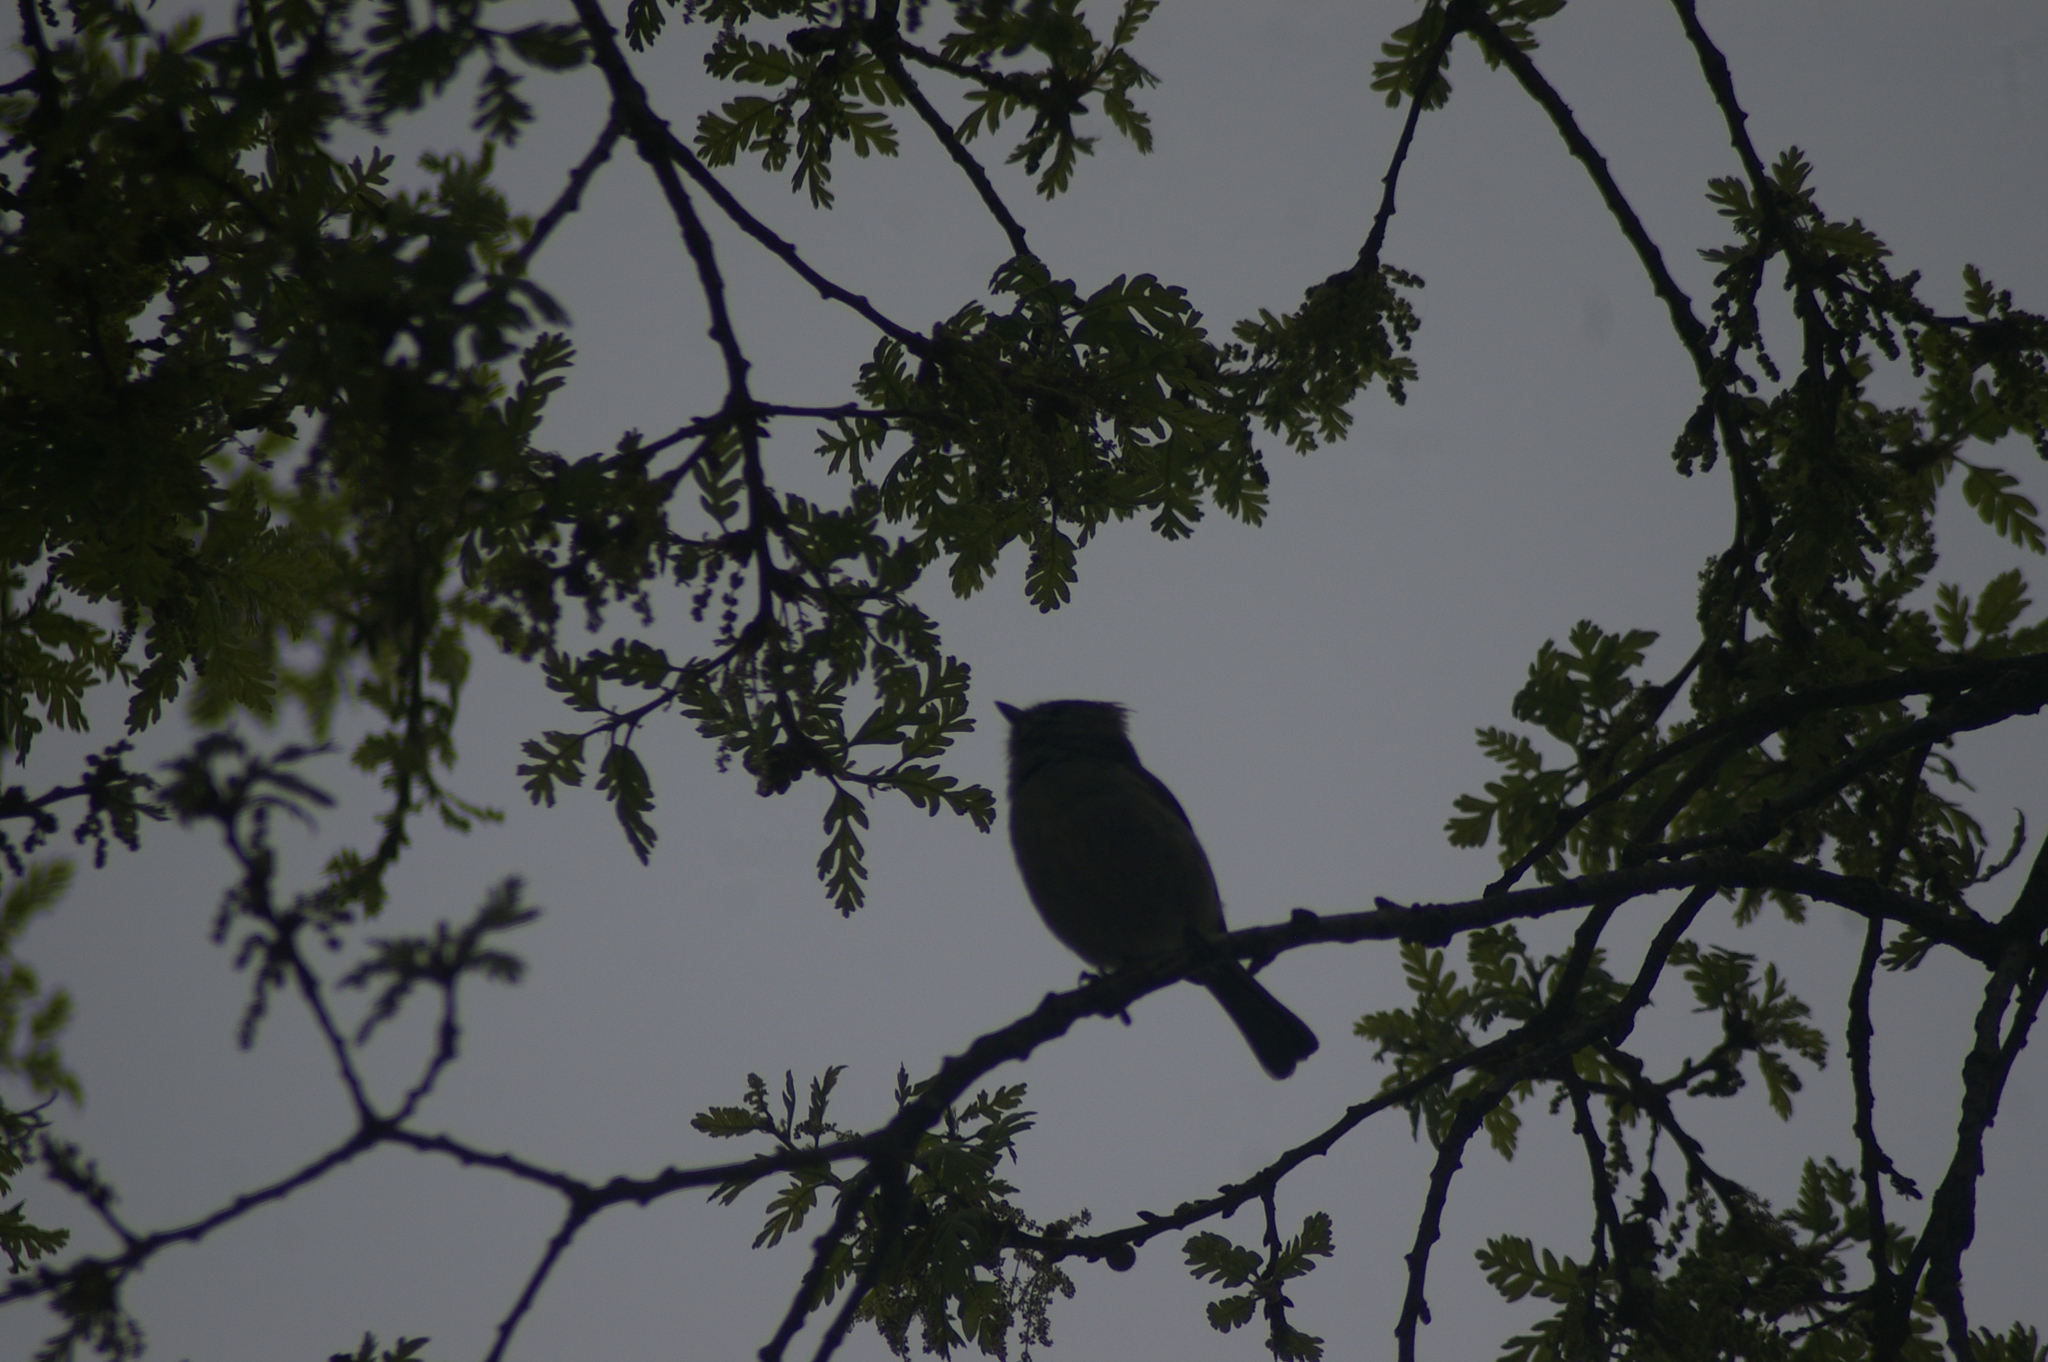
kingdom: Animalia
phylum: Chordata
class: Aves
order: Passeriformes
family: Paridae
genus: Baeolophus
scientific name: Baeolophus inornatus
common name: Oak titmouse
